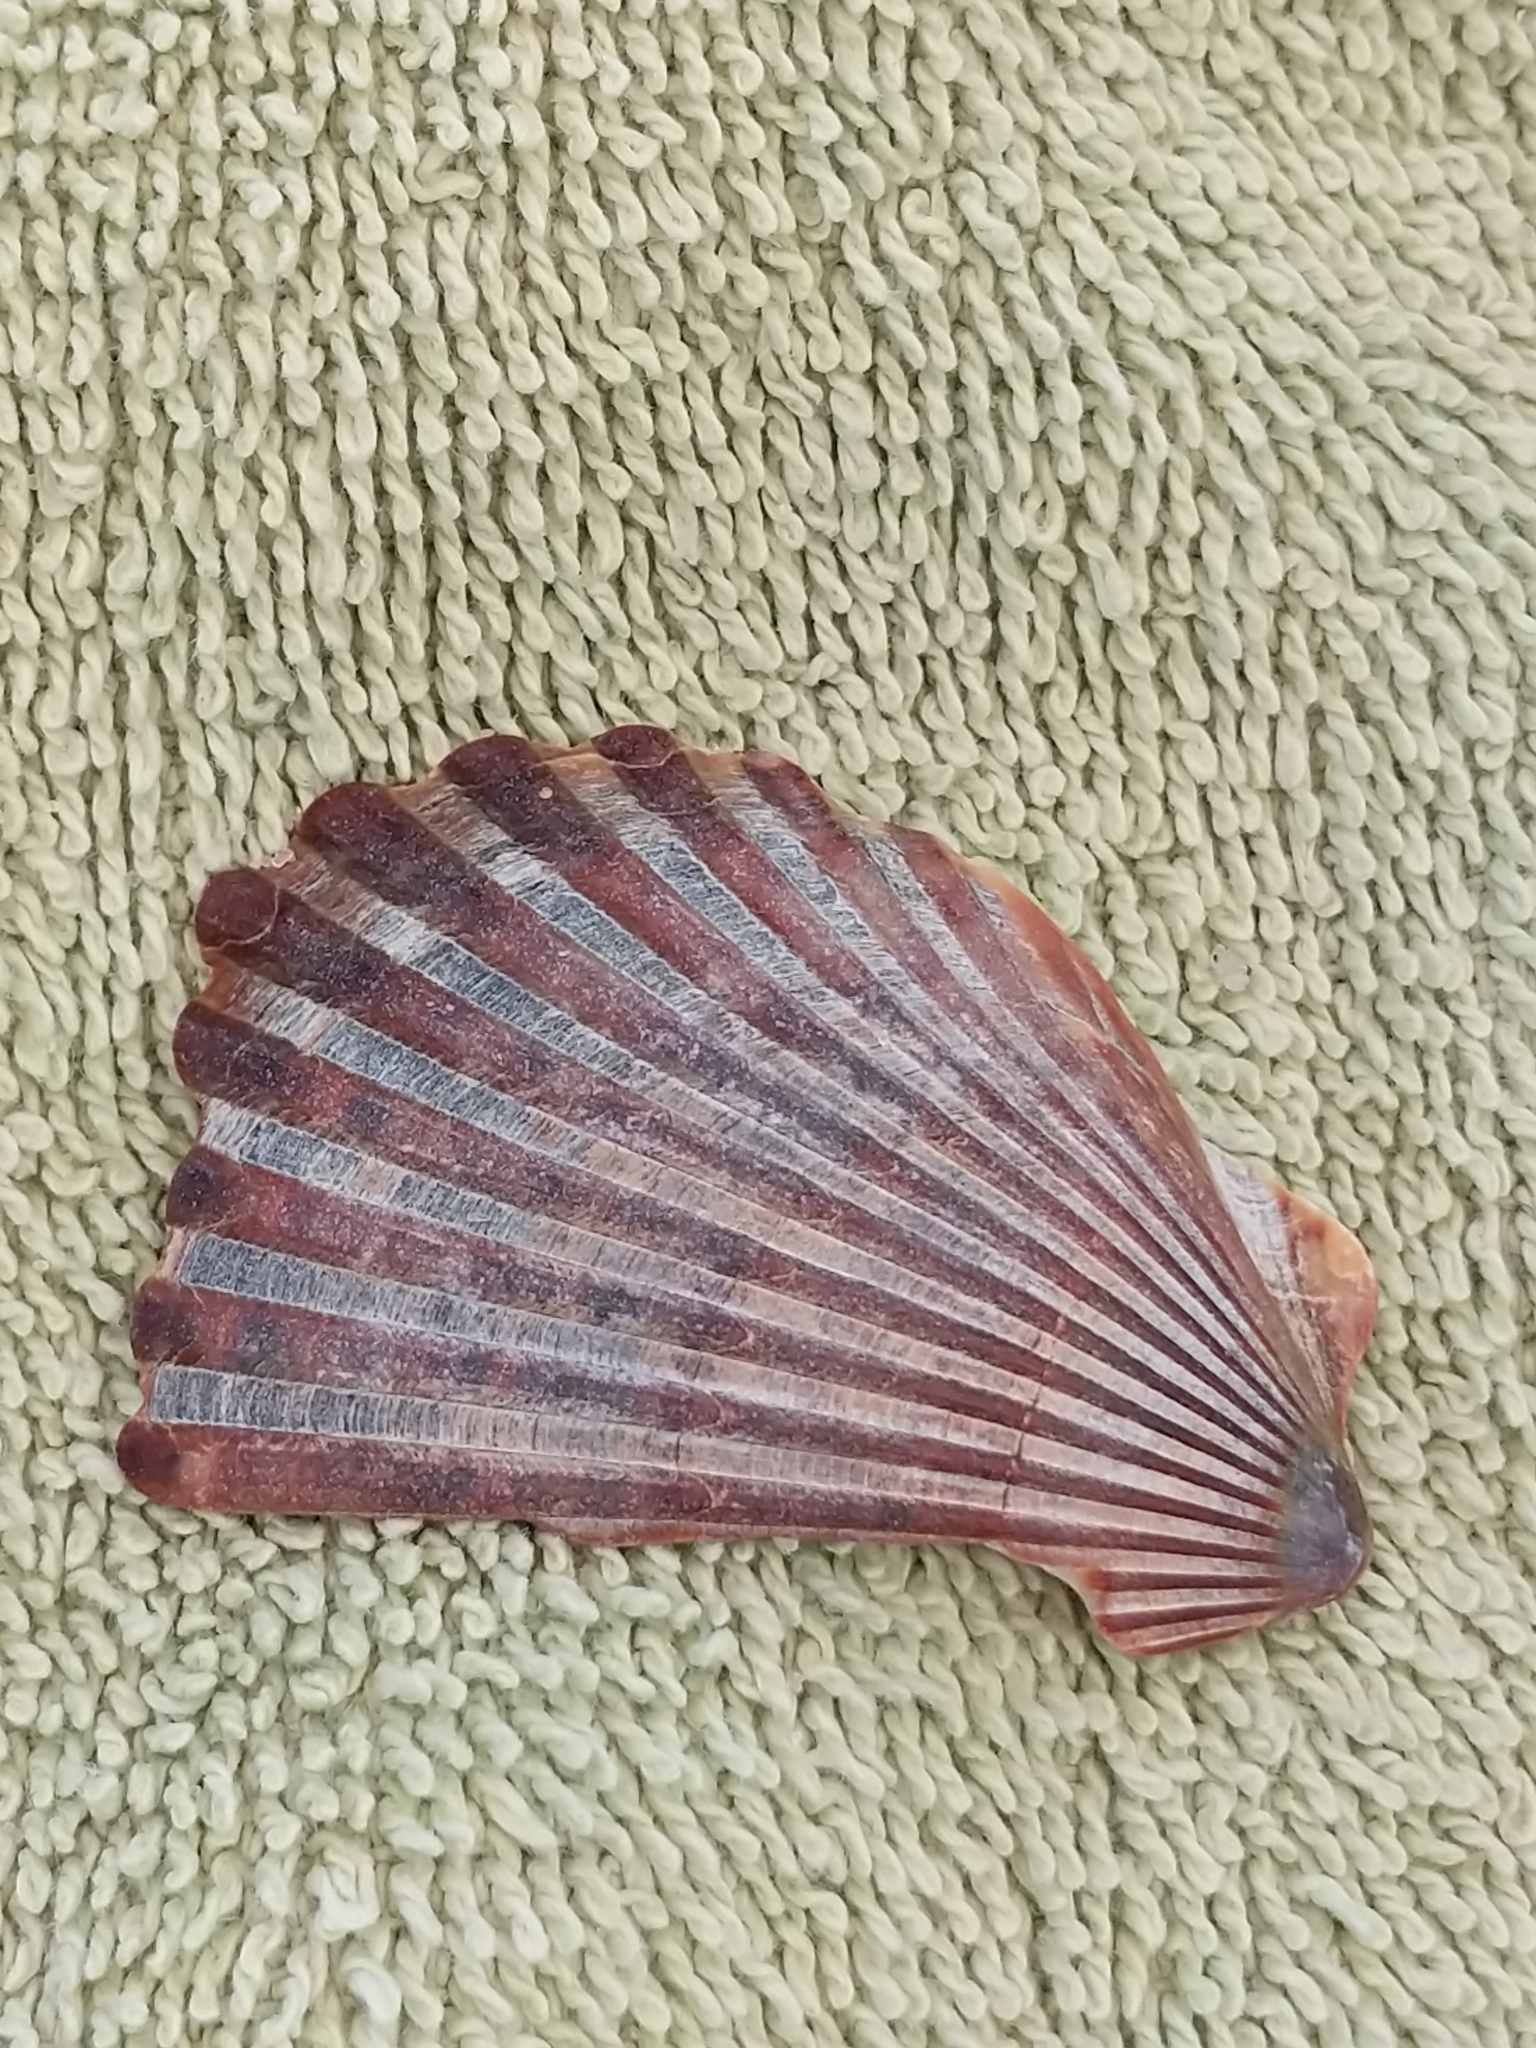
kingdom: Animalia
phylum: Mollusca
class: Bivalvia
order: Pectinida
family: Pectinidae
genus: Argopecten
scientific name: Argopecten irradians
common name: Atlantic bay scallop
